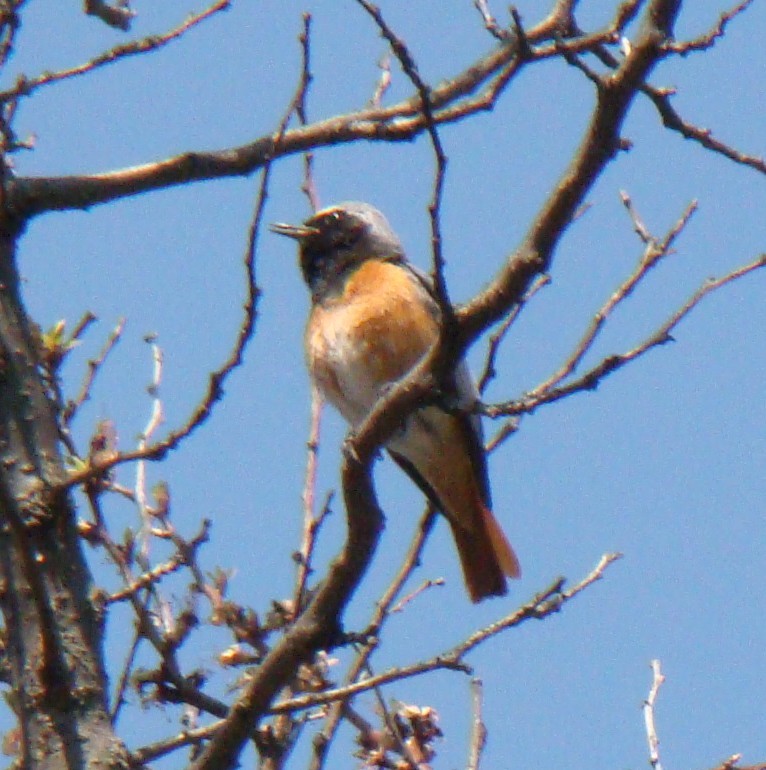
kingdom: Animalia
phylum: Chordata
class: Aves
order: Passeriformes
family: Muscicapidae
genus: Phoenicurus
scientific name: Phoenicurus phoenicurus
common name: Common redstart
